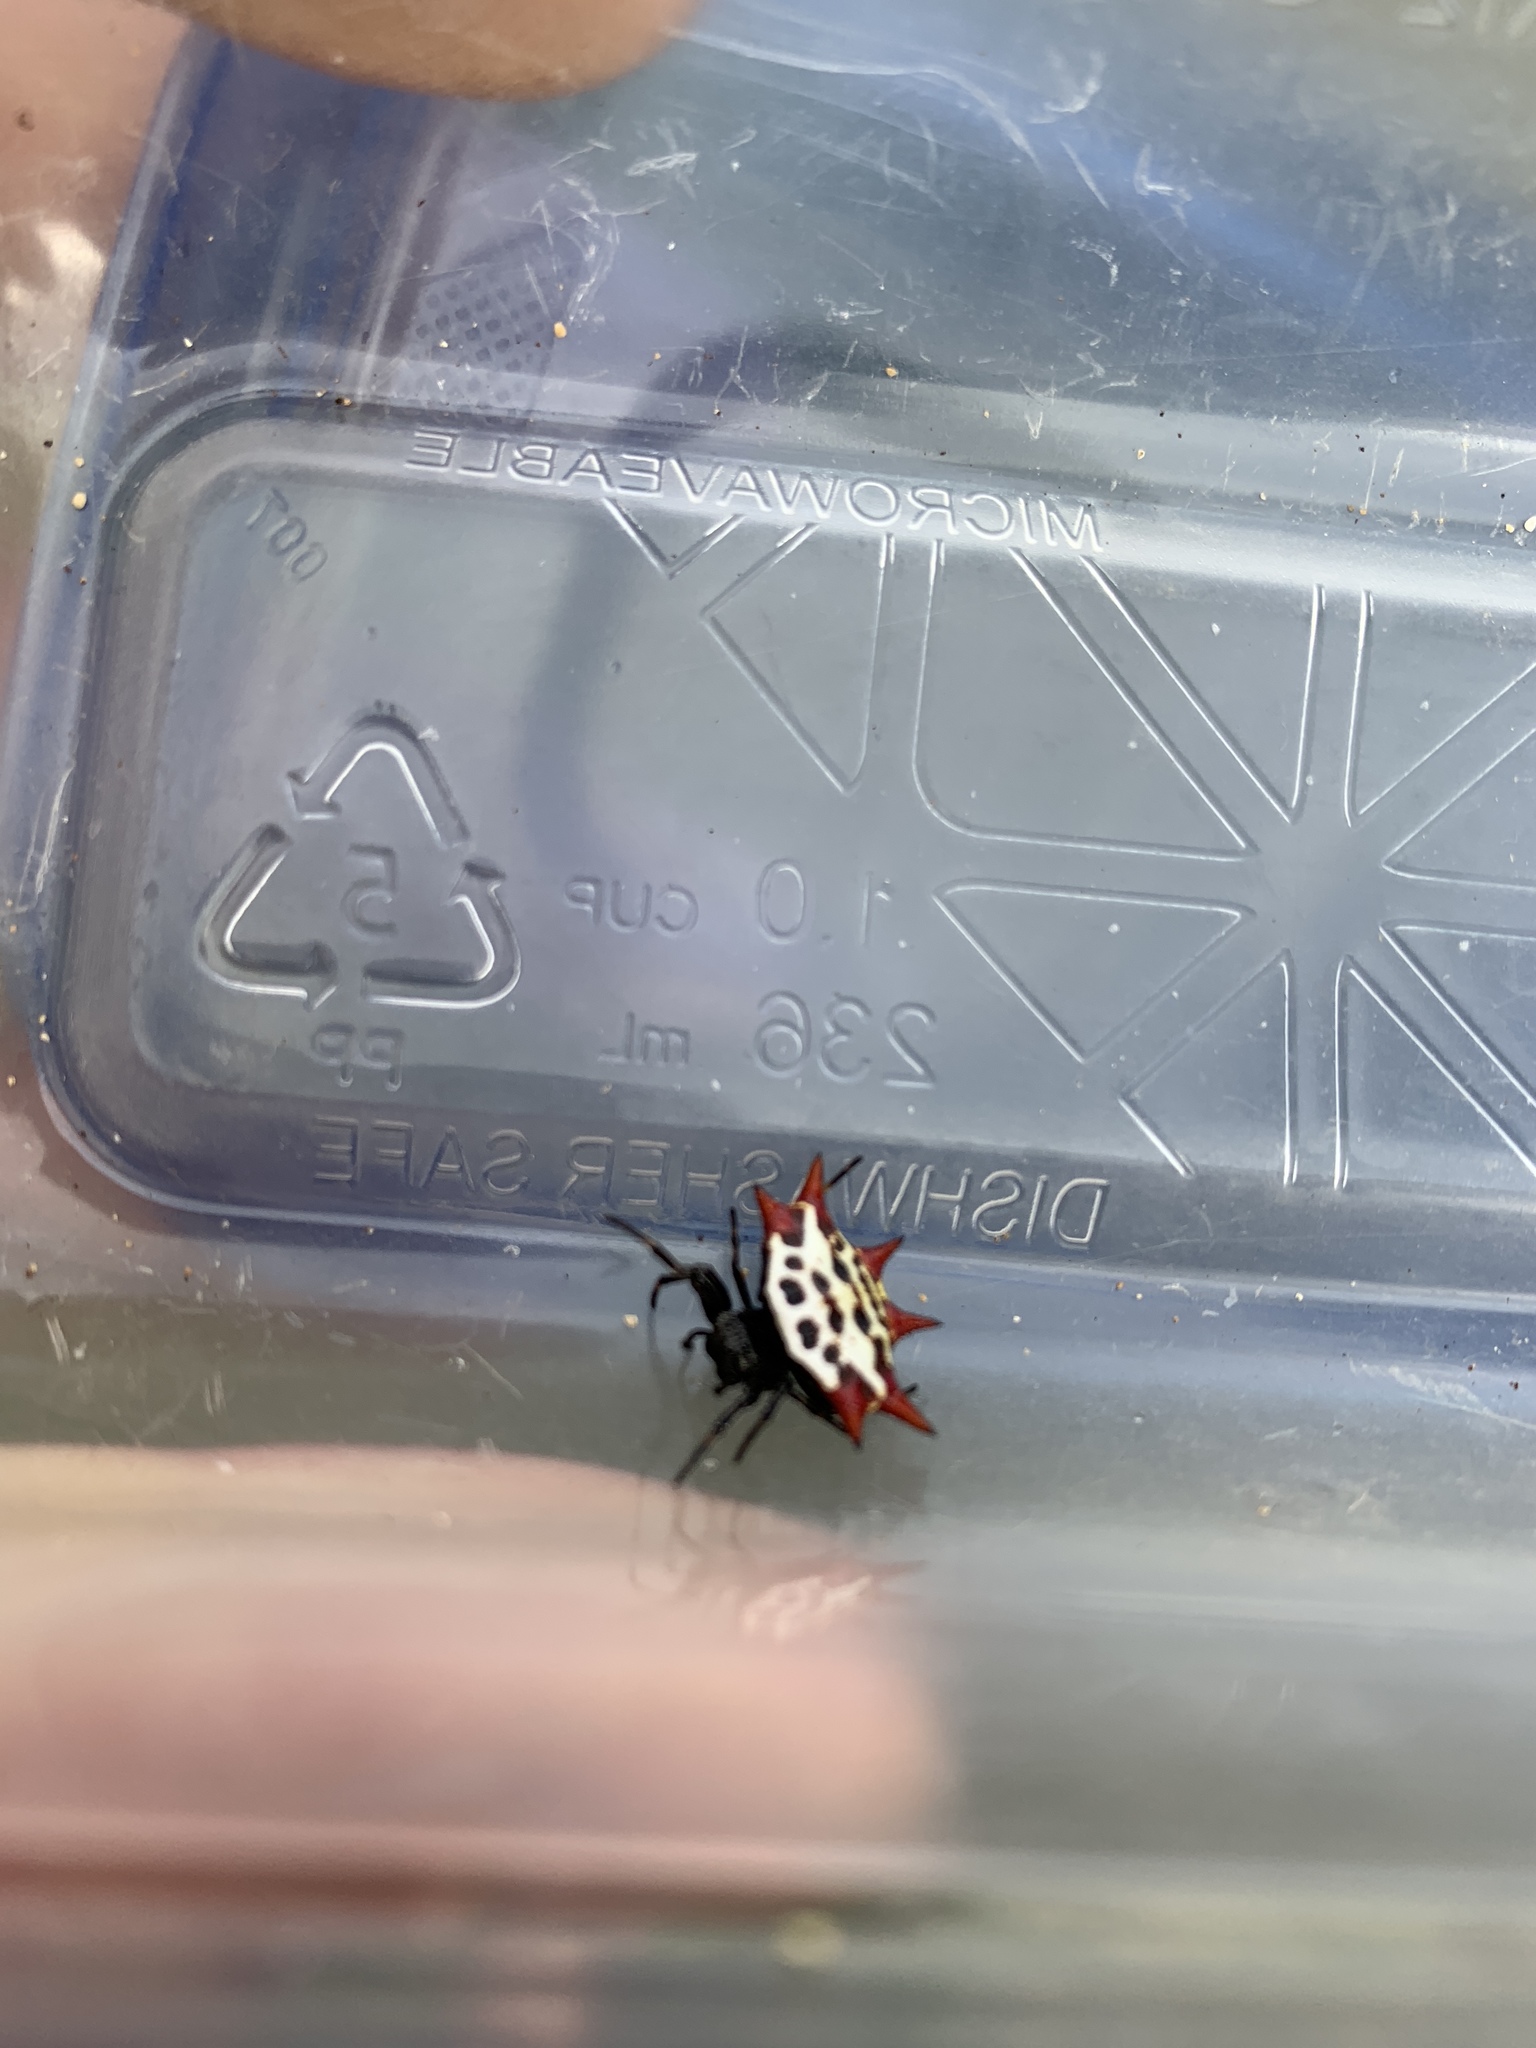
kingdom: Animalia
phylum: Arthropoda
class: Arachnida
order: Araneae
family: Araneidae
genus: Gasteracantha
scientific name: Gasteracantha cancriformis
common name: Orb weavers
